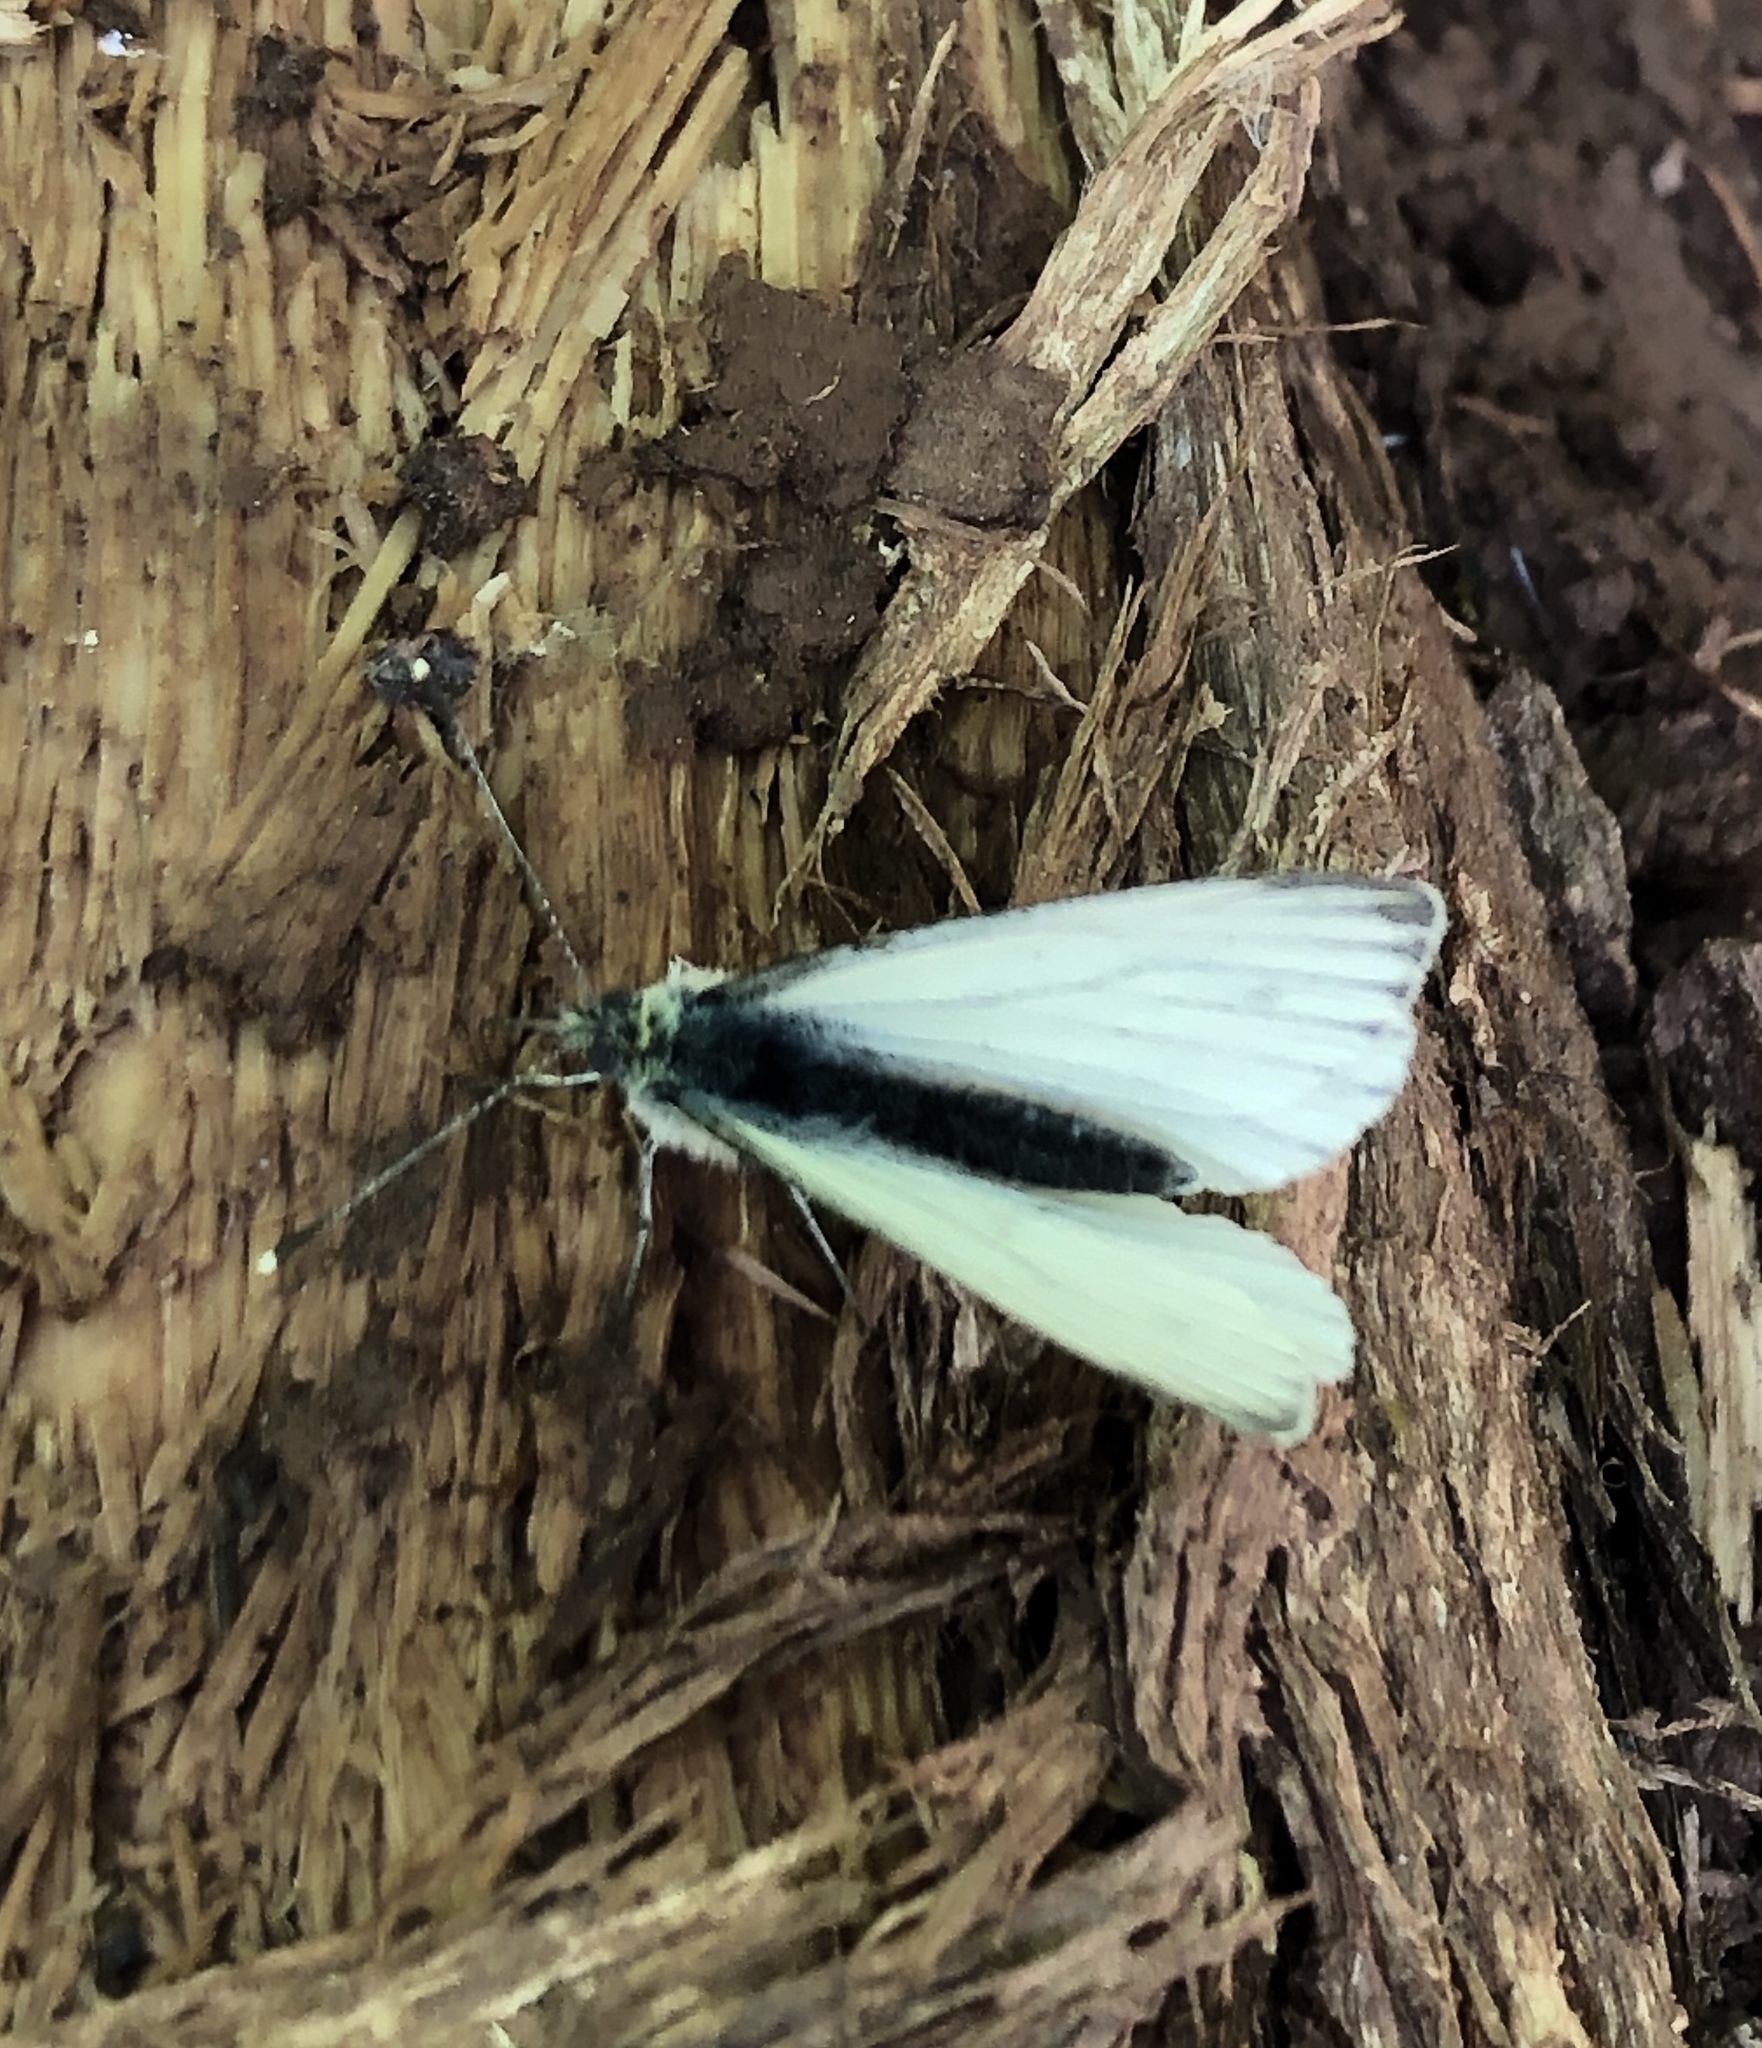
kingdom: Animalia
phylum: Arthropoda
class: Insecta
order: Lepidoptera
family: Pieridae
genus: Pieris
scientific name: Pieris napi
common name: Green-veined white
